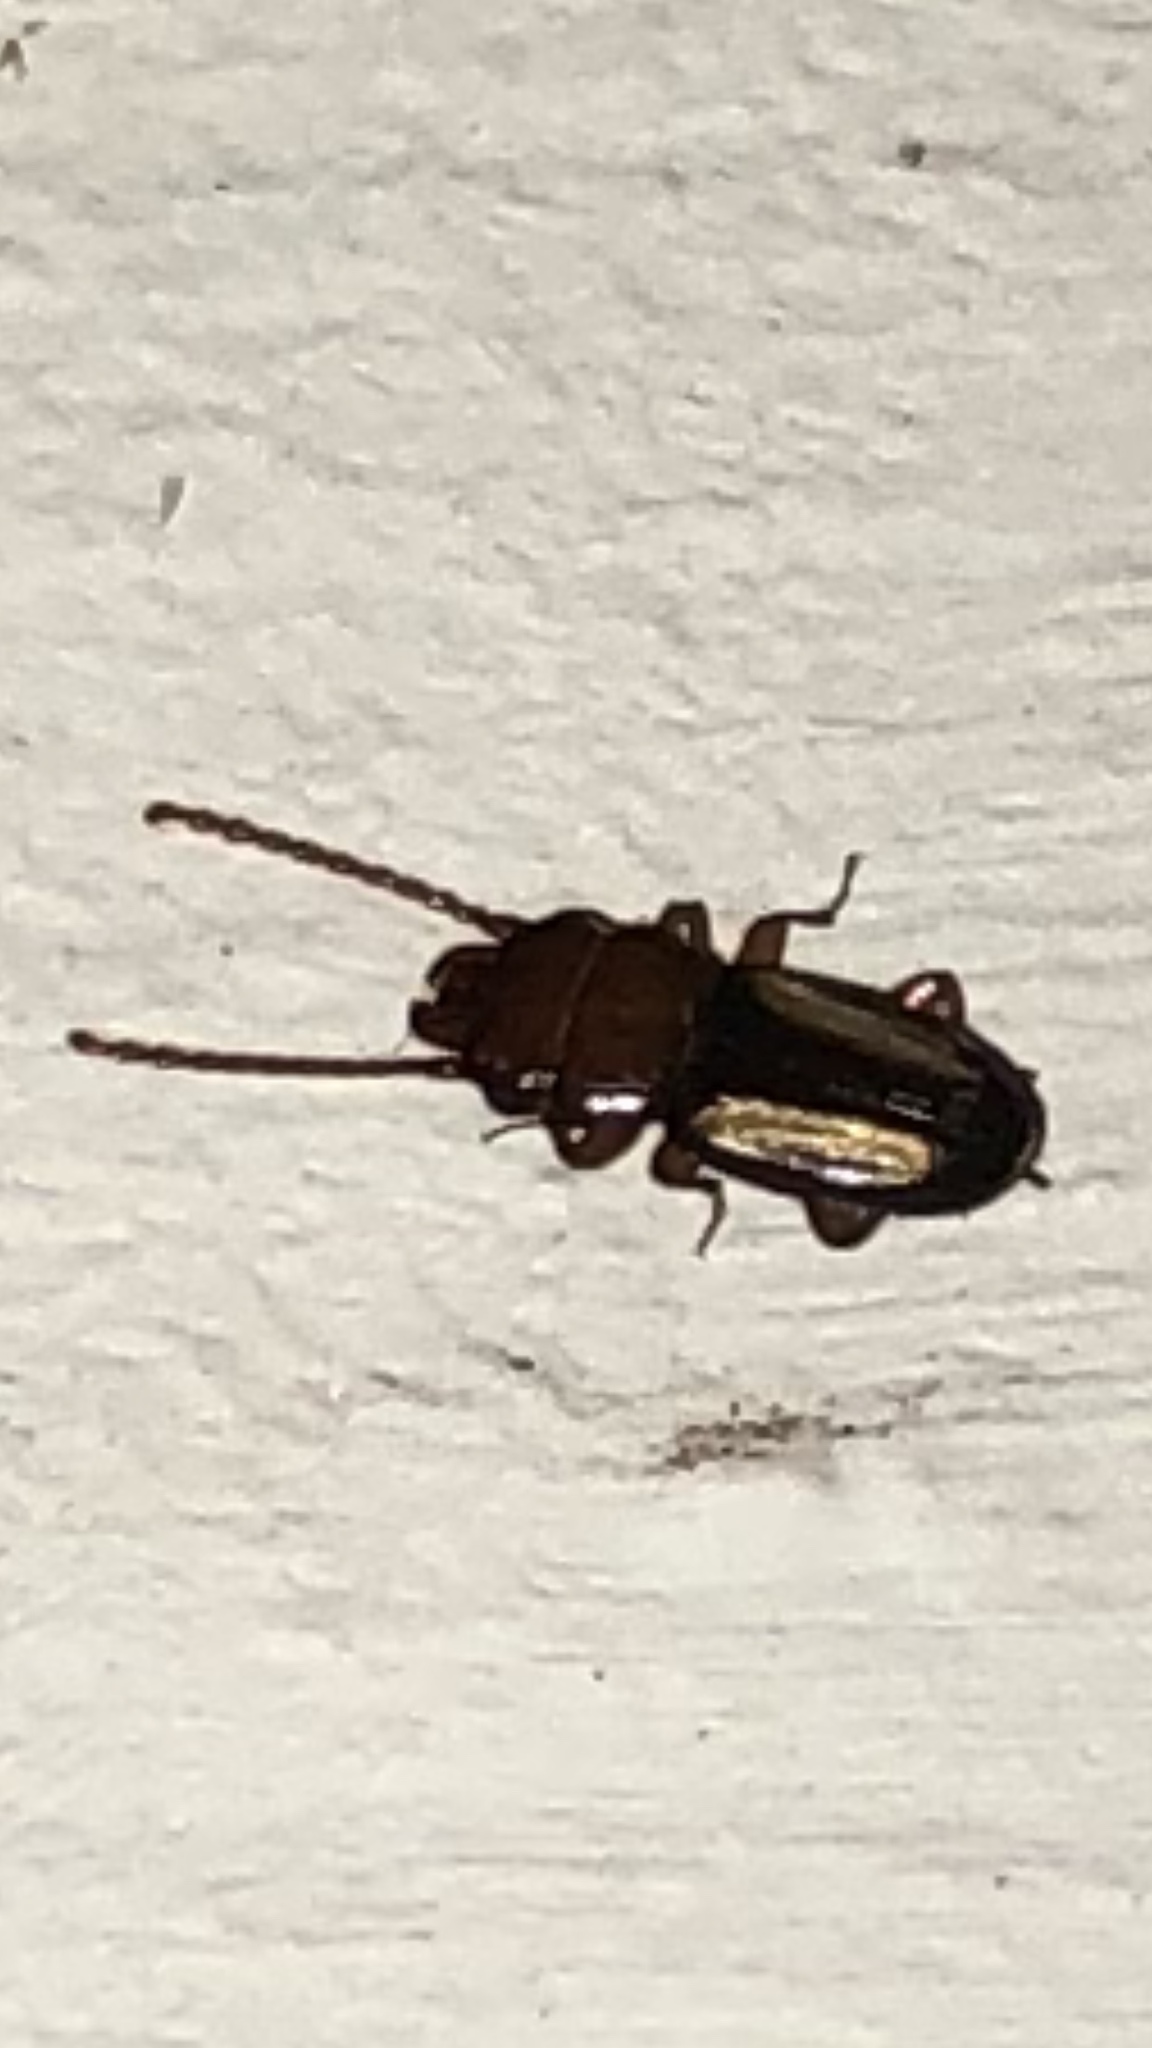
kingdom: Animalia
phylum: Arthropoda
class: Insecta
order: Coleoptera
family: Laemophloeidae
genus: Laemophloeus
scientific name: Laemophloeus terminalis
